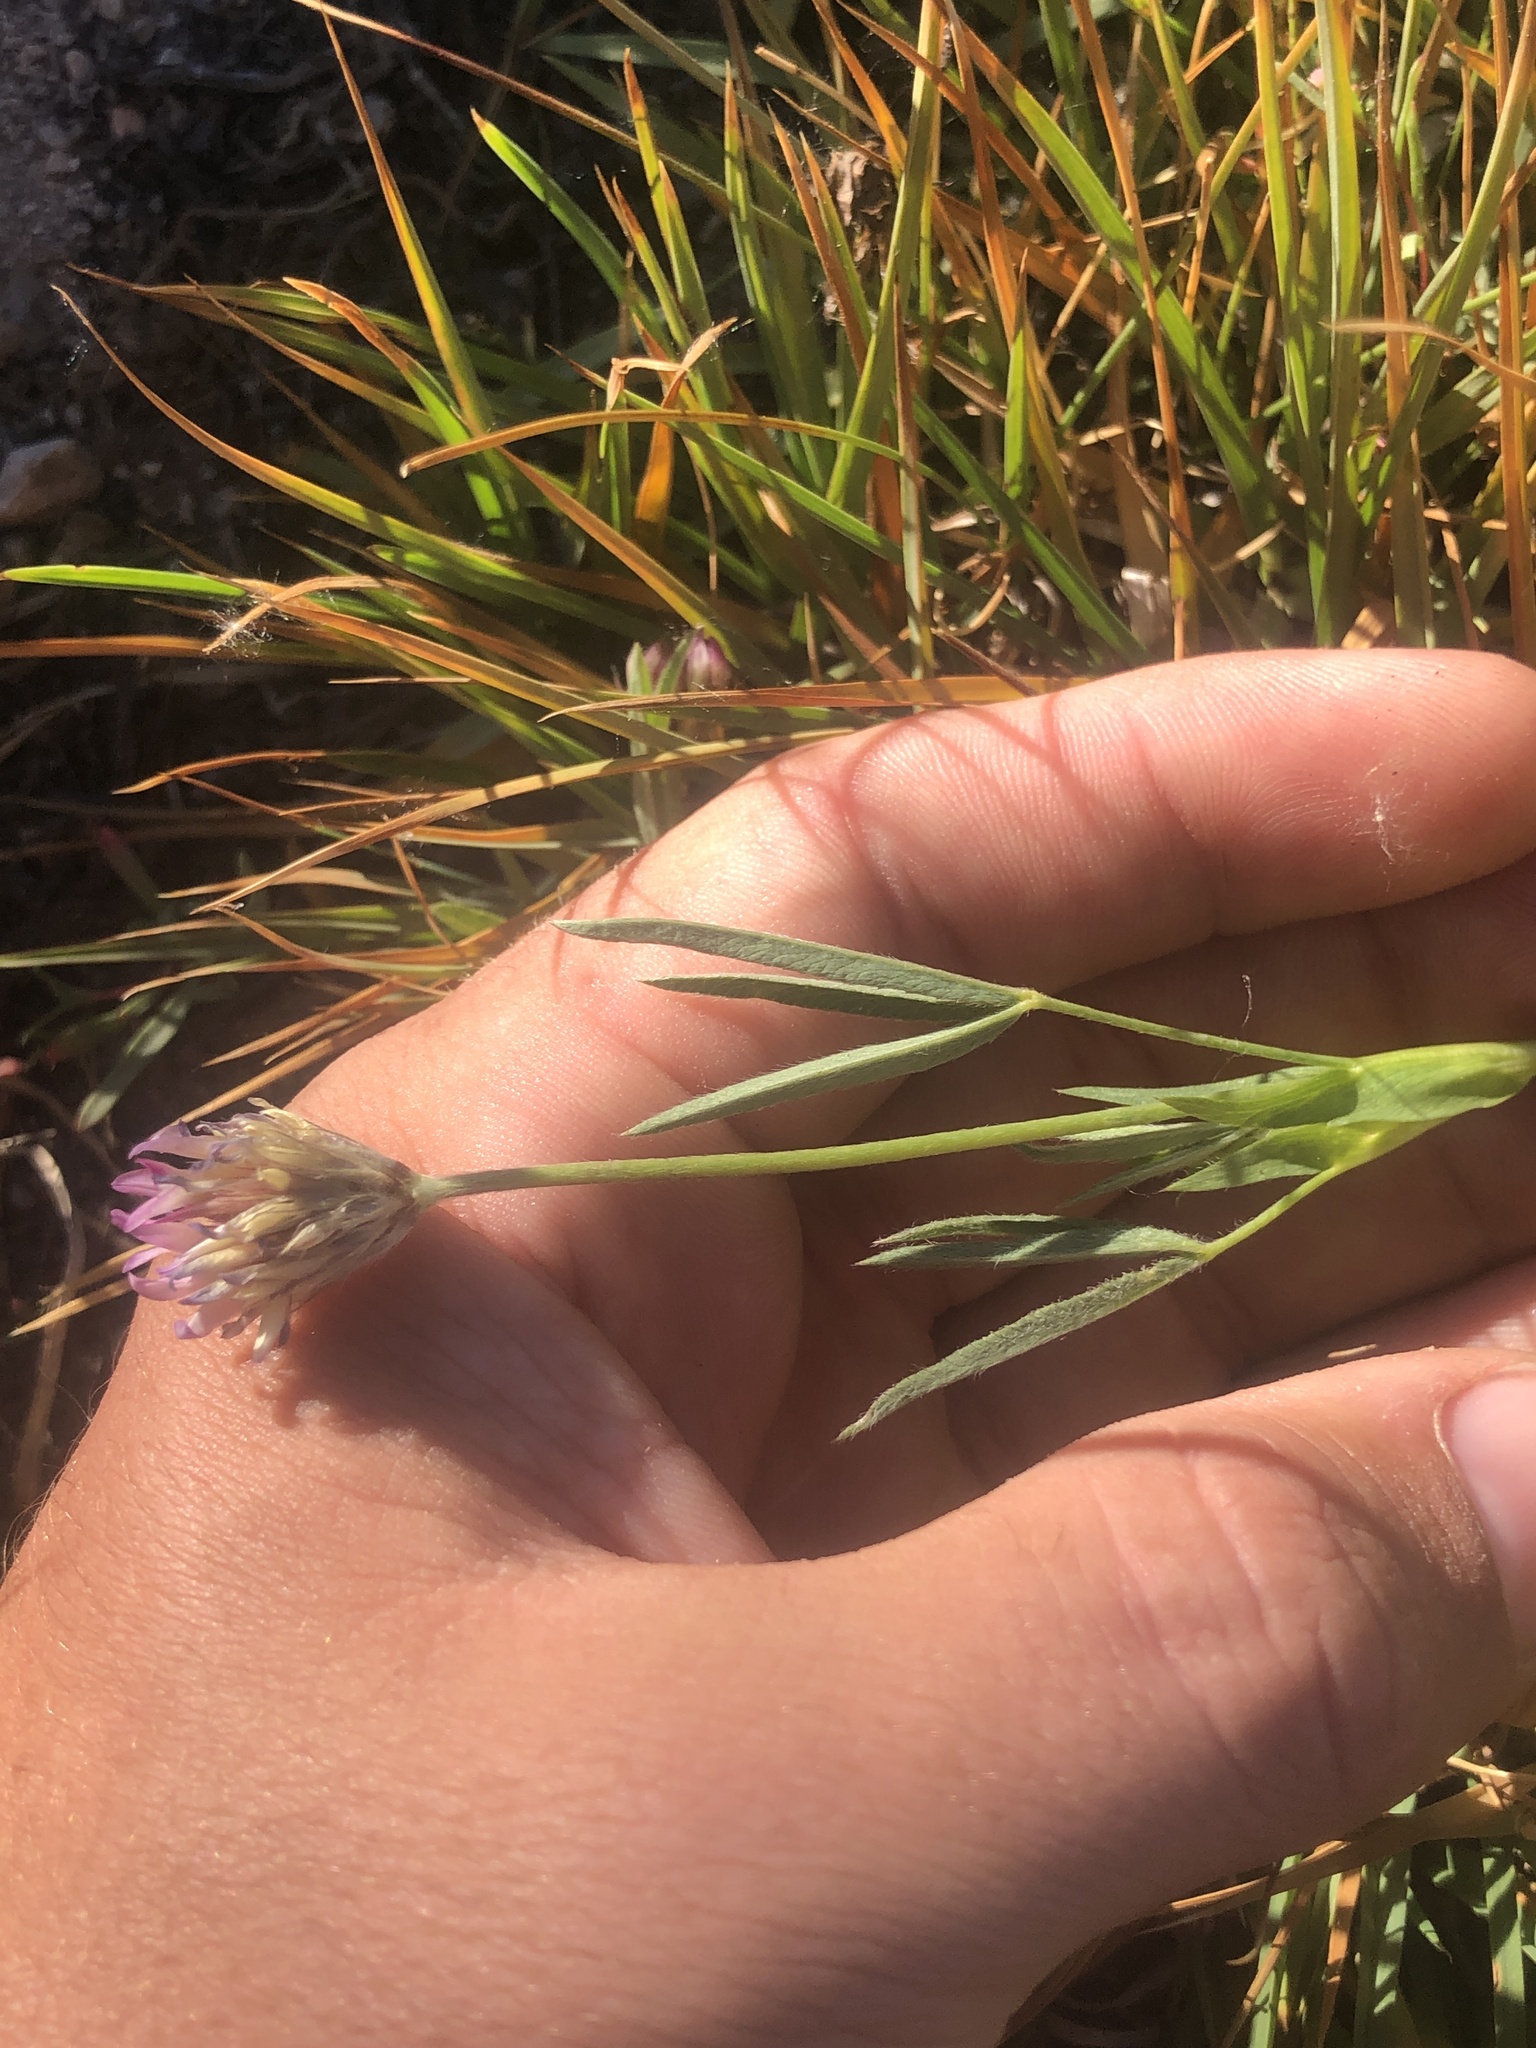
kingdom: Plantae
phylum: Tracheophyta
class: Magnoliopsida
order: Fabales
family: Fabaceae
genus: Trifolium
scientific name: Trifolium longipes
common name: Long-stalk clover
